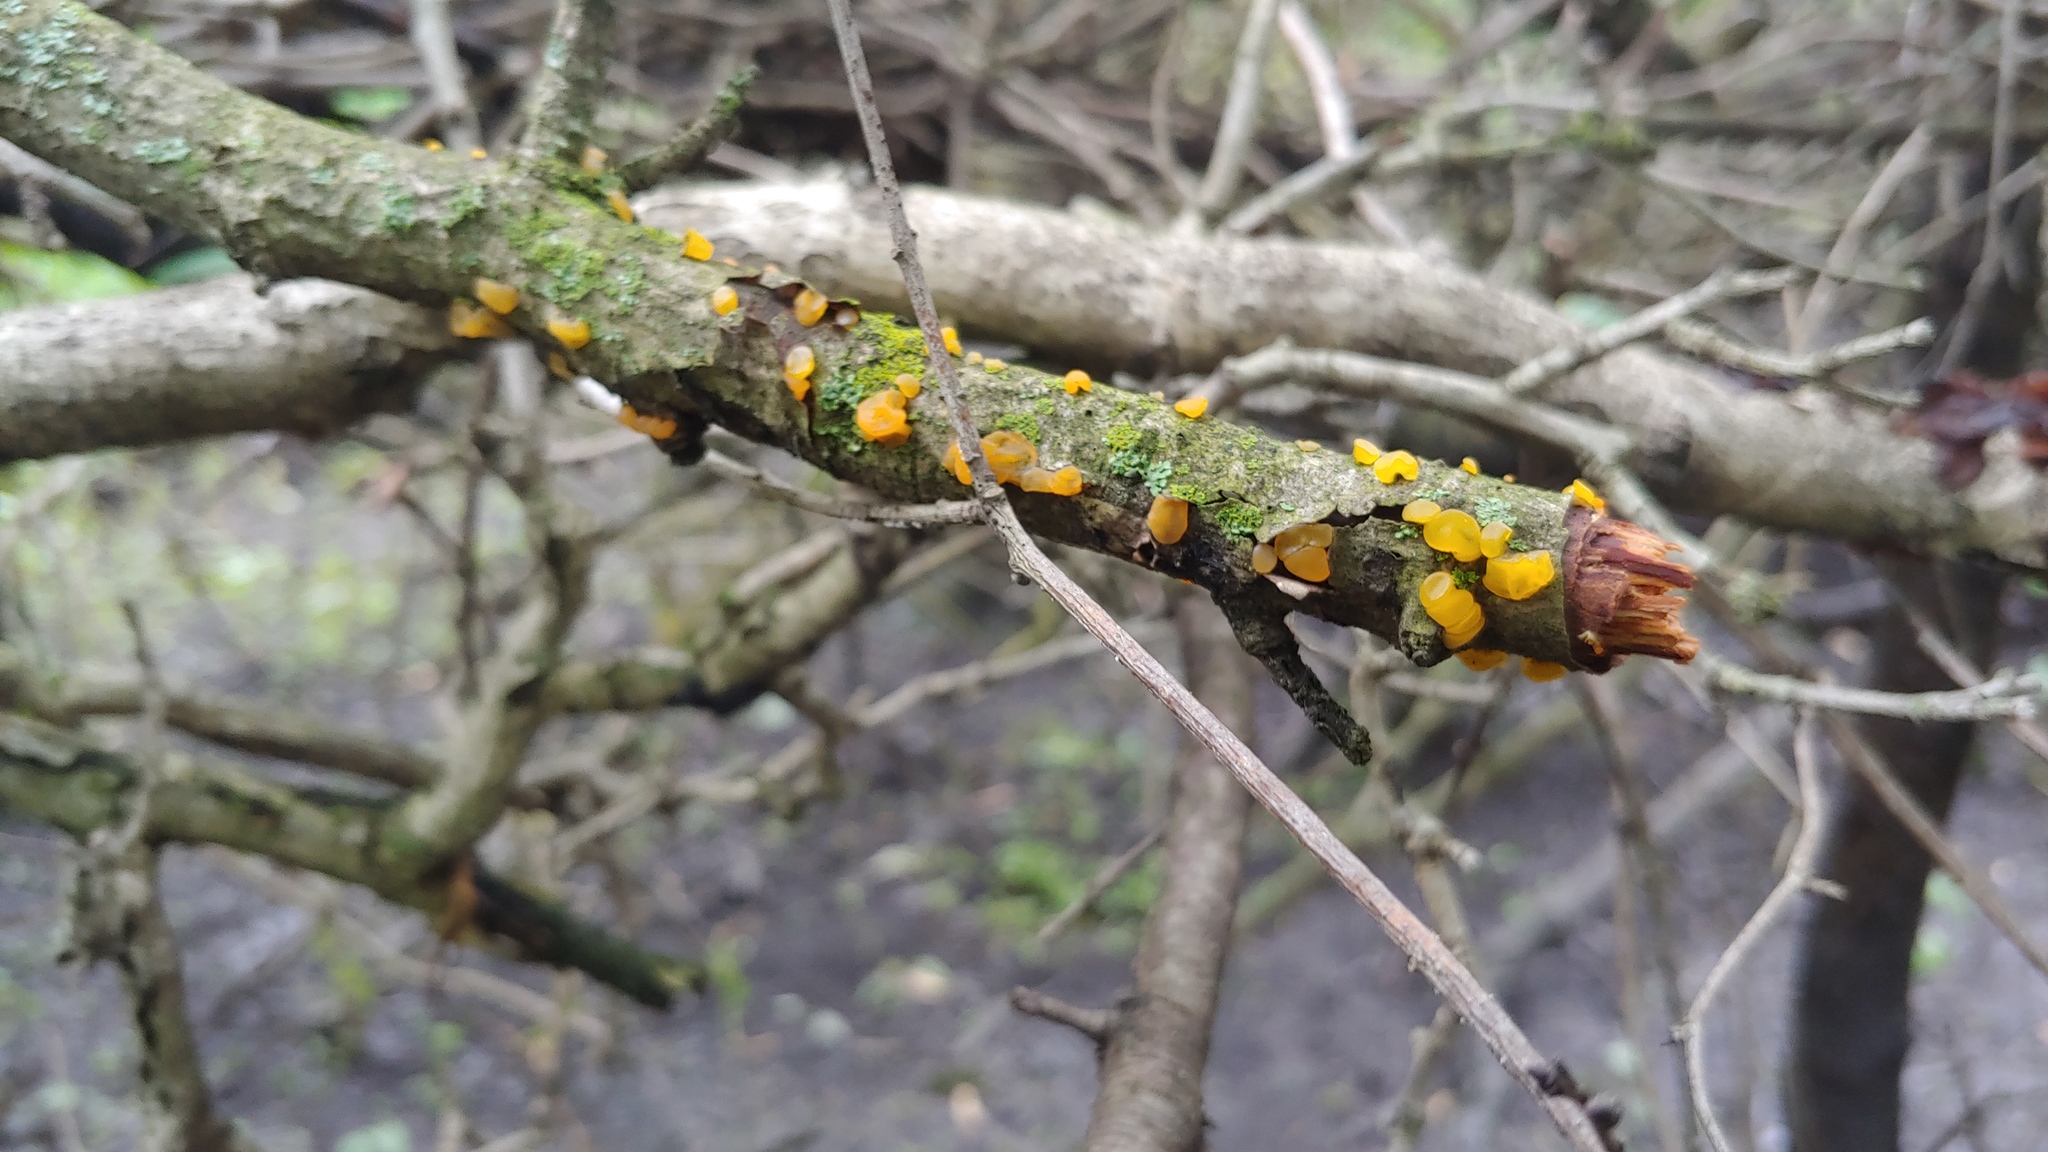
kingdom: Fungi
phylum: Basidiomycota
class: Dacrymycetes
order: Dacrymycetales
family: Dacrymycetaceae
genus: Dacrymyces
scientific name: Dacrymyces capitatus
